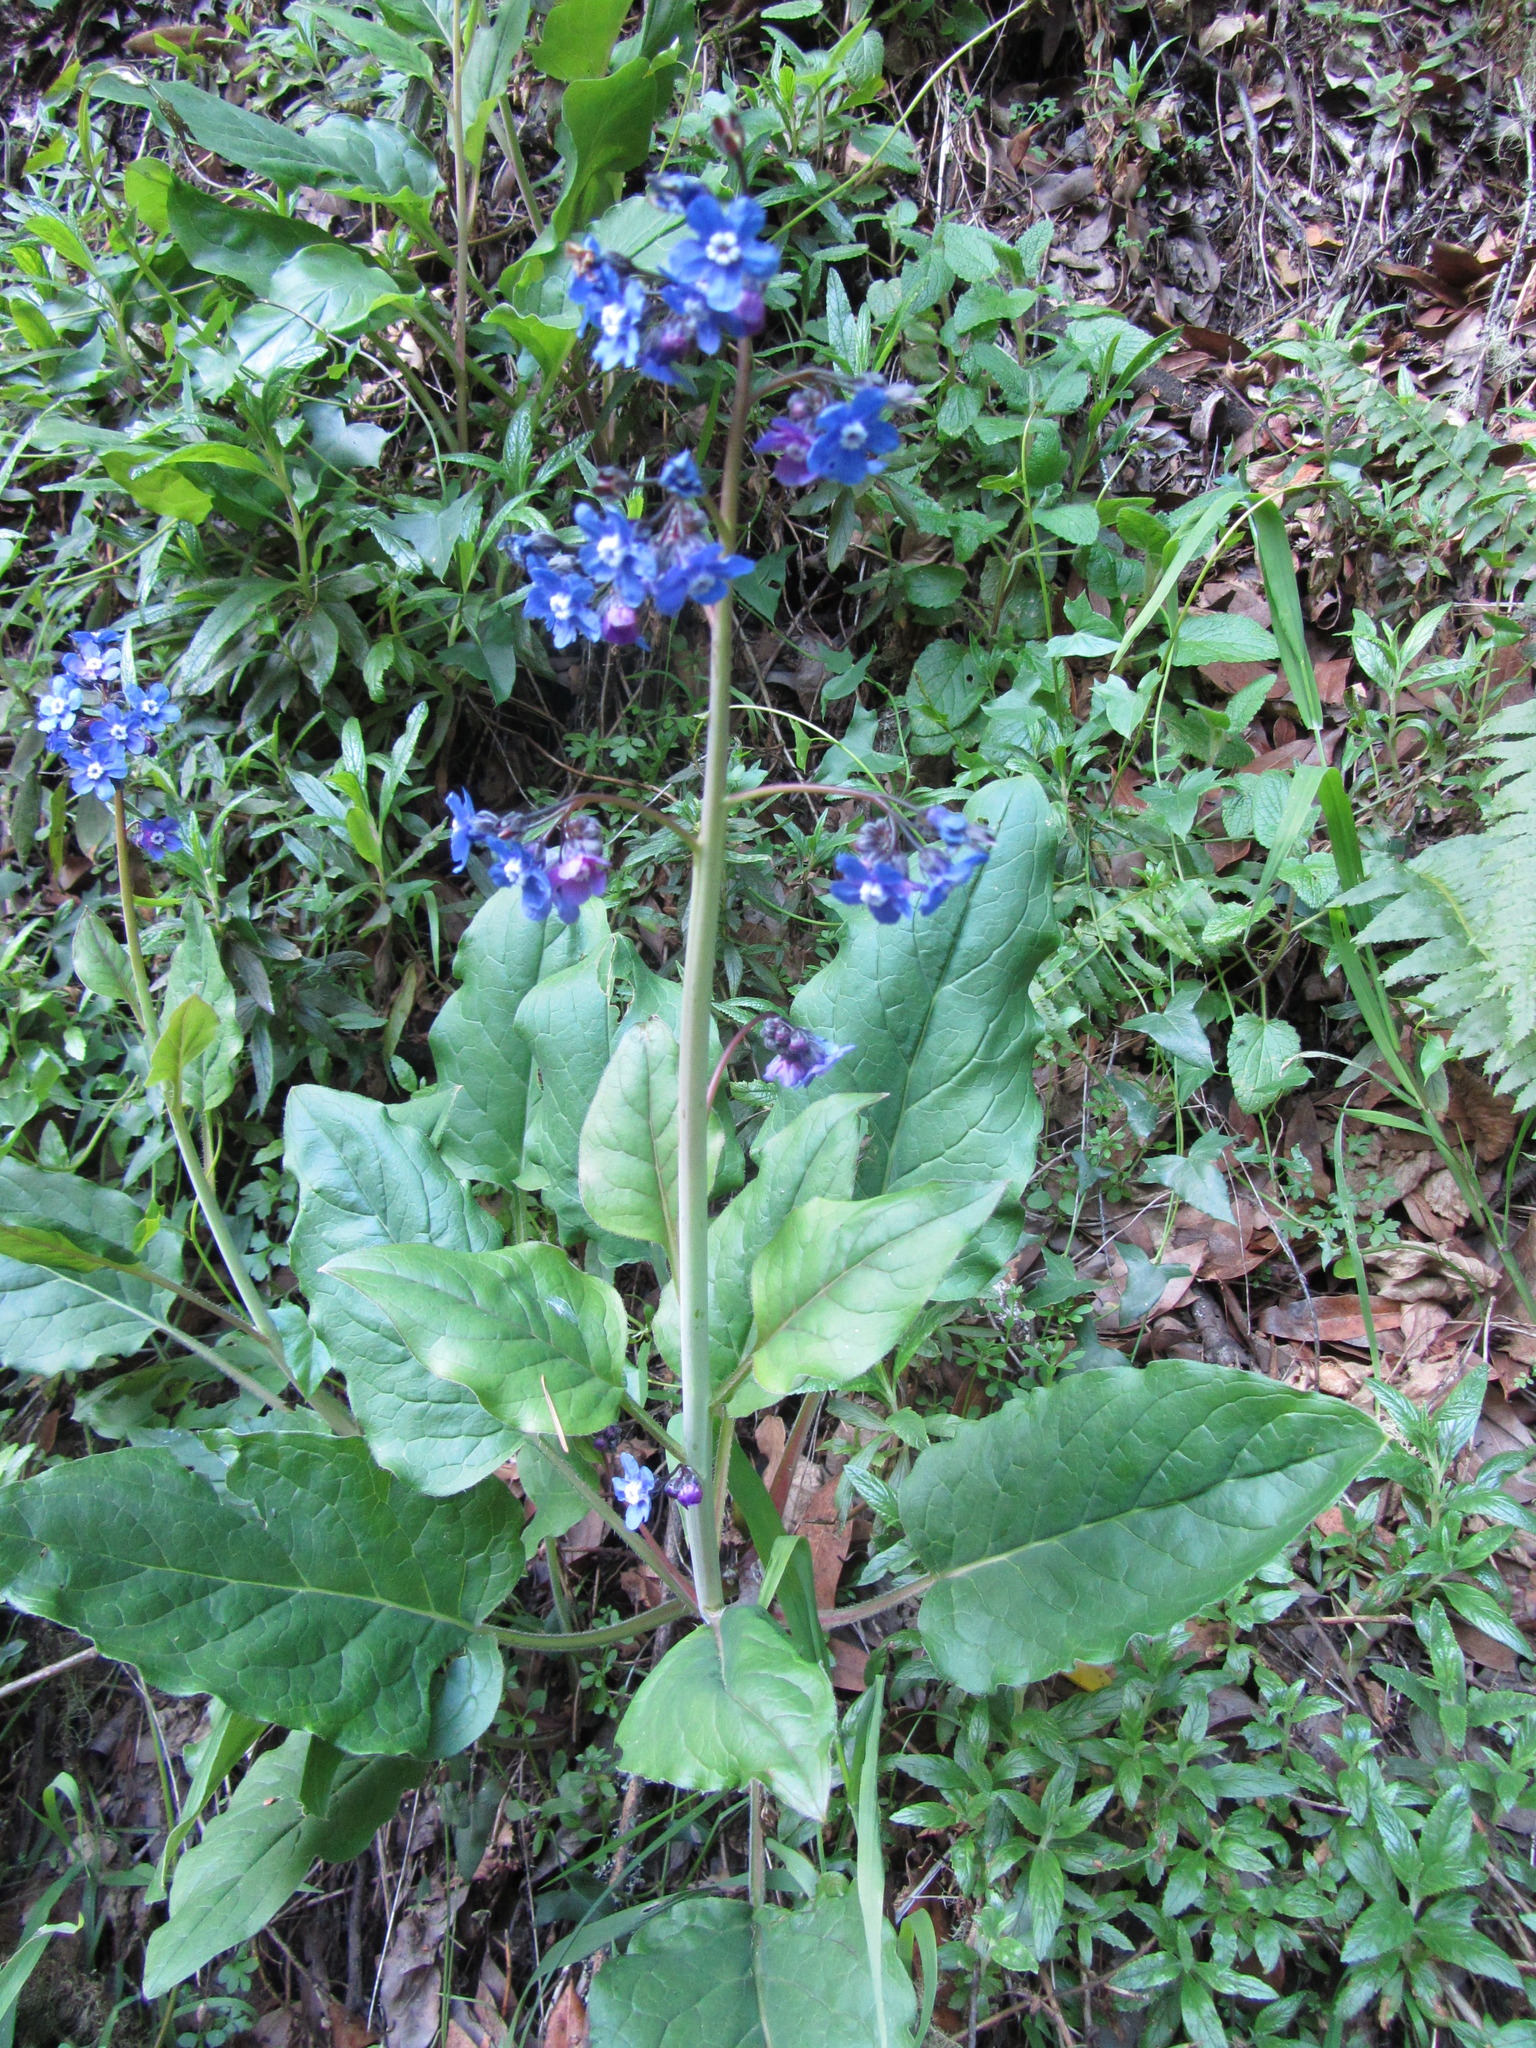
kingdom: Plantae
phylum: Tracheophyta
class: Magnoliopsida
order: Boraginales
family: Boraginaceae
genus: Adelinia
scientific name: Adelinia grande
